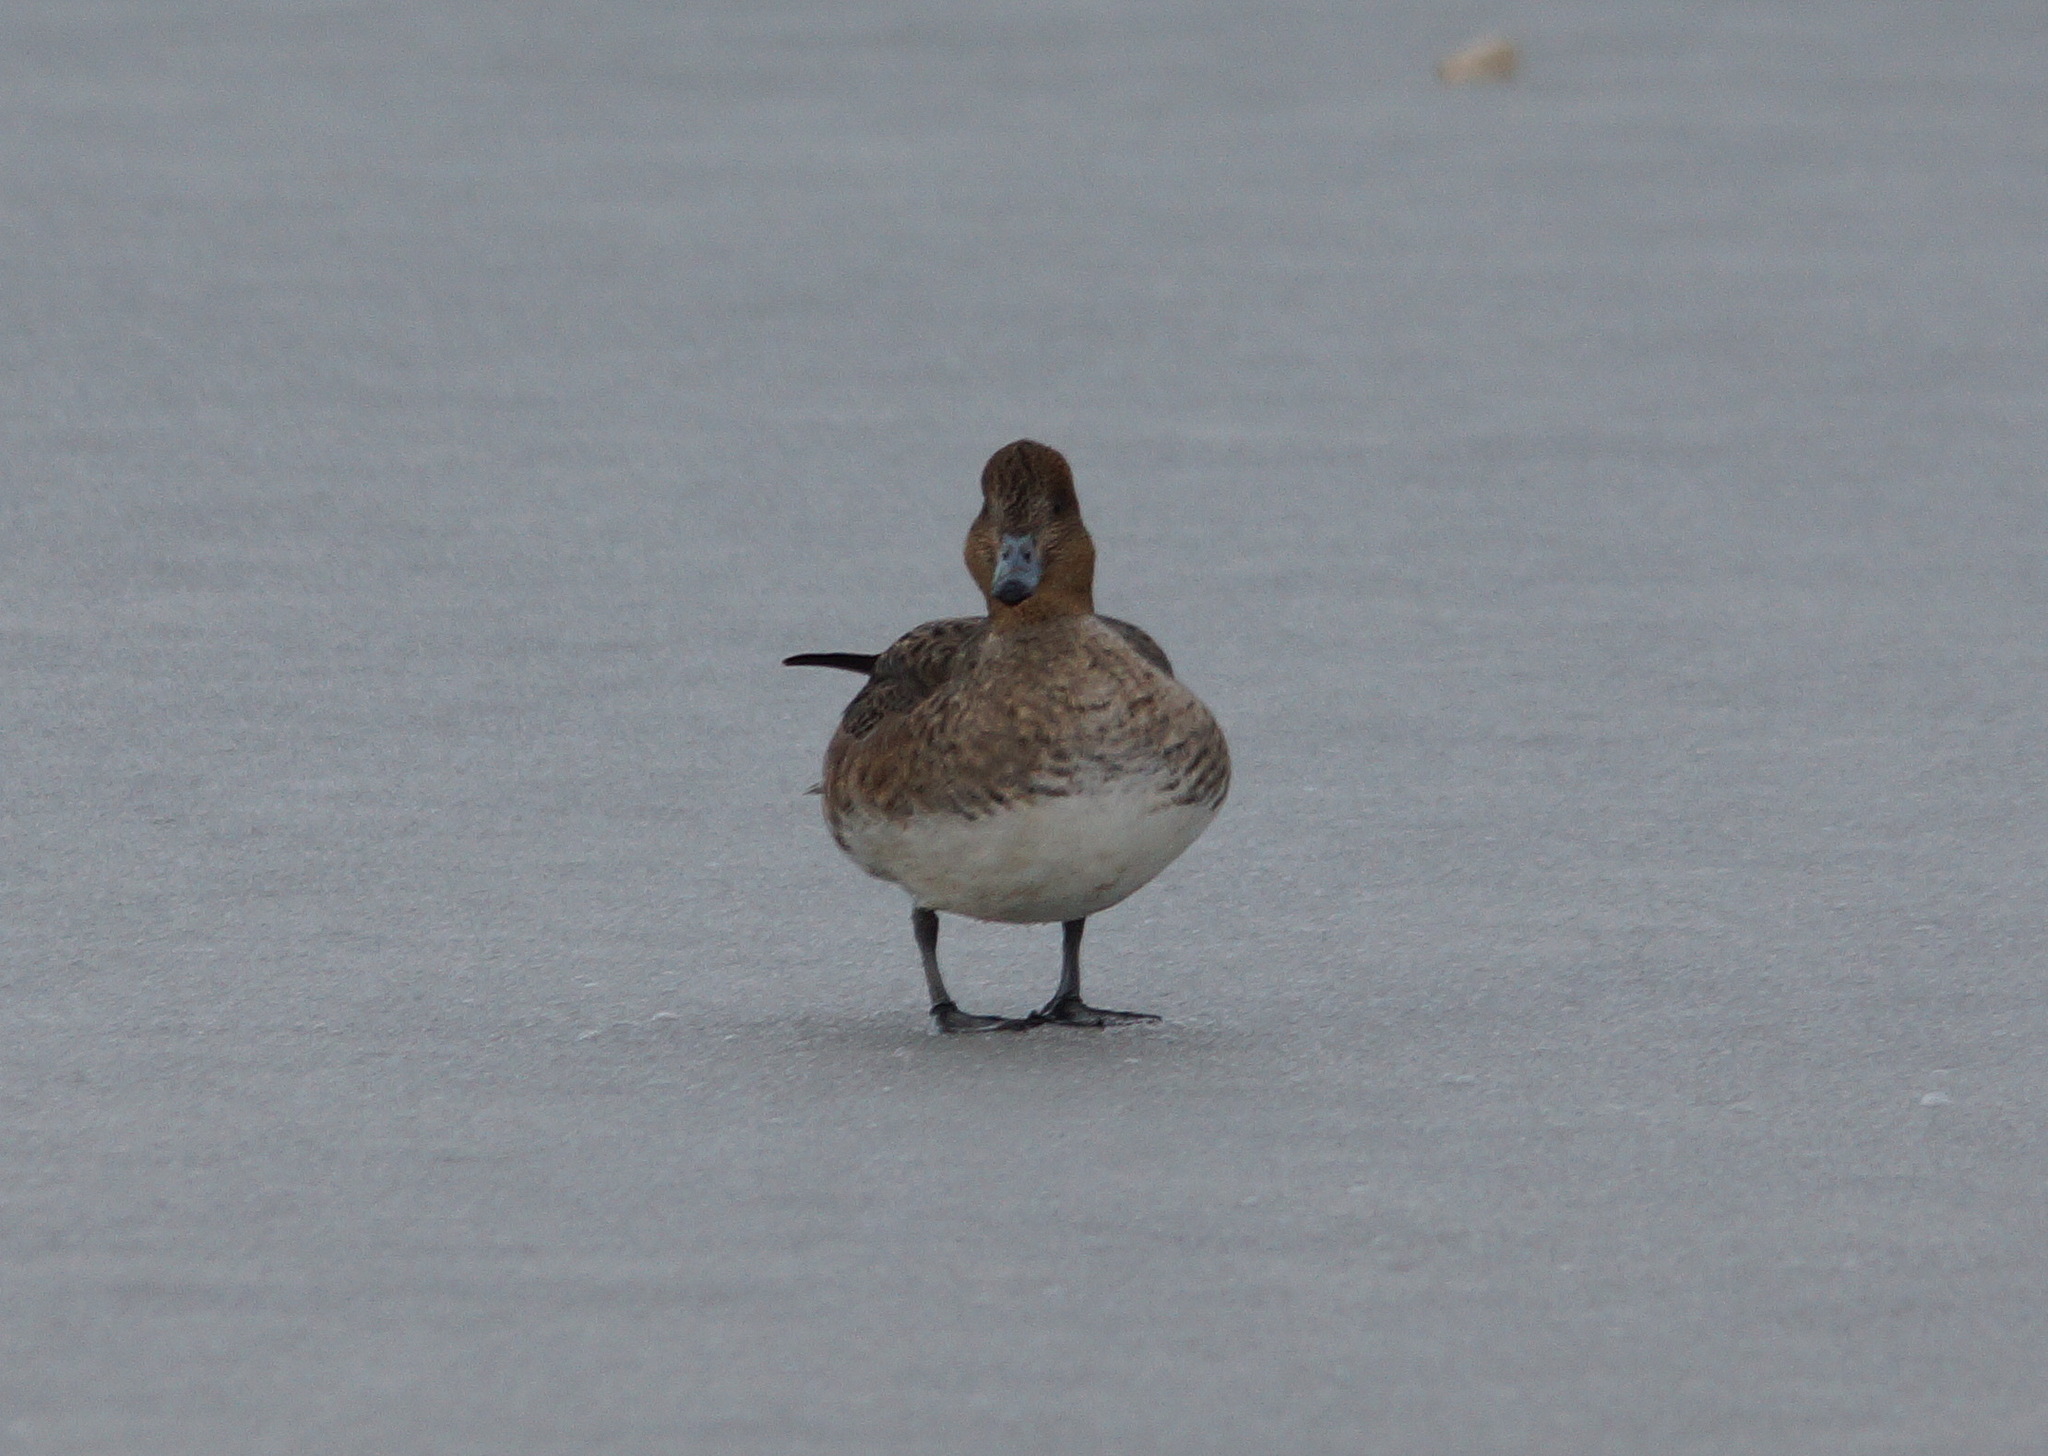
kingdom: Animalia
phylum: Chordata
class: Aves
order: Anseriformes
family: Anatidae
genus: Mareca
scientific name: Mareca penelope
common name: Eurasian wigeon
